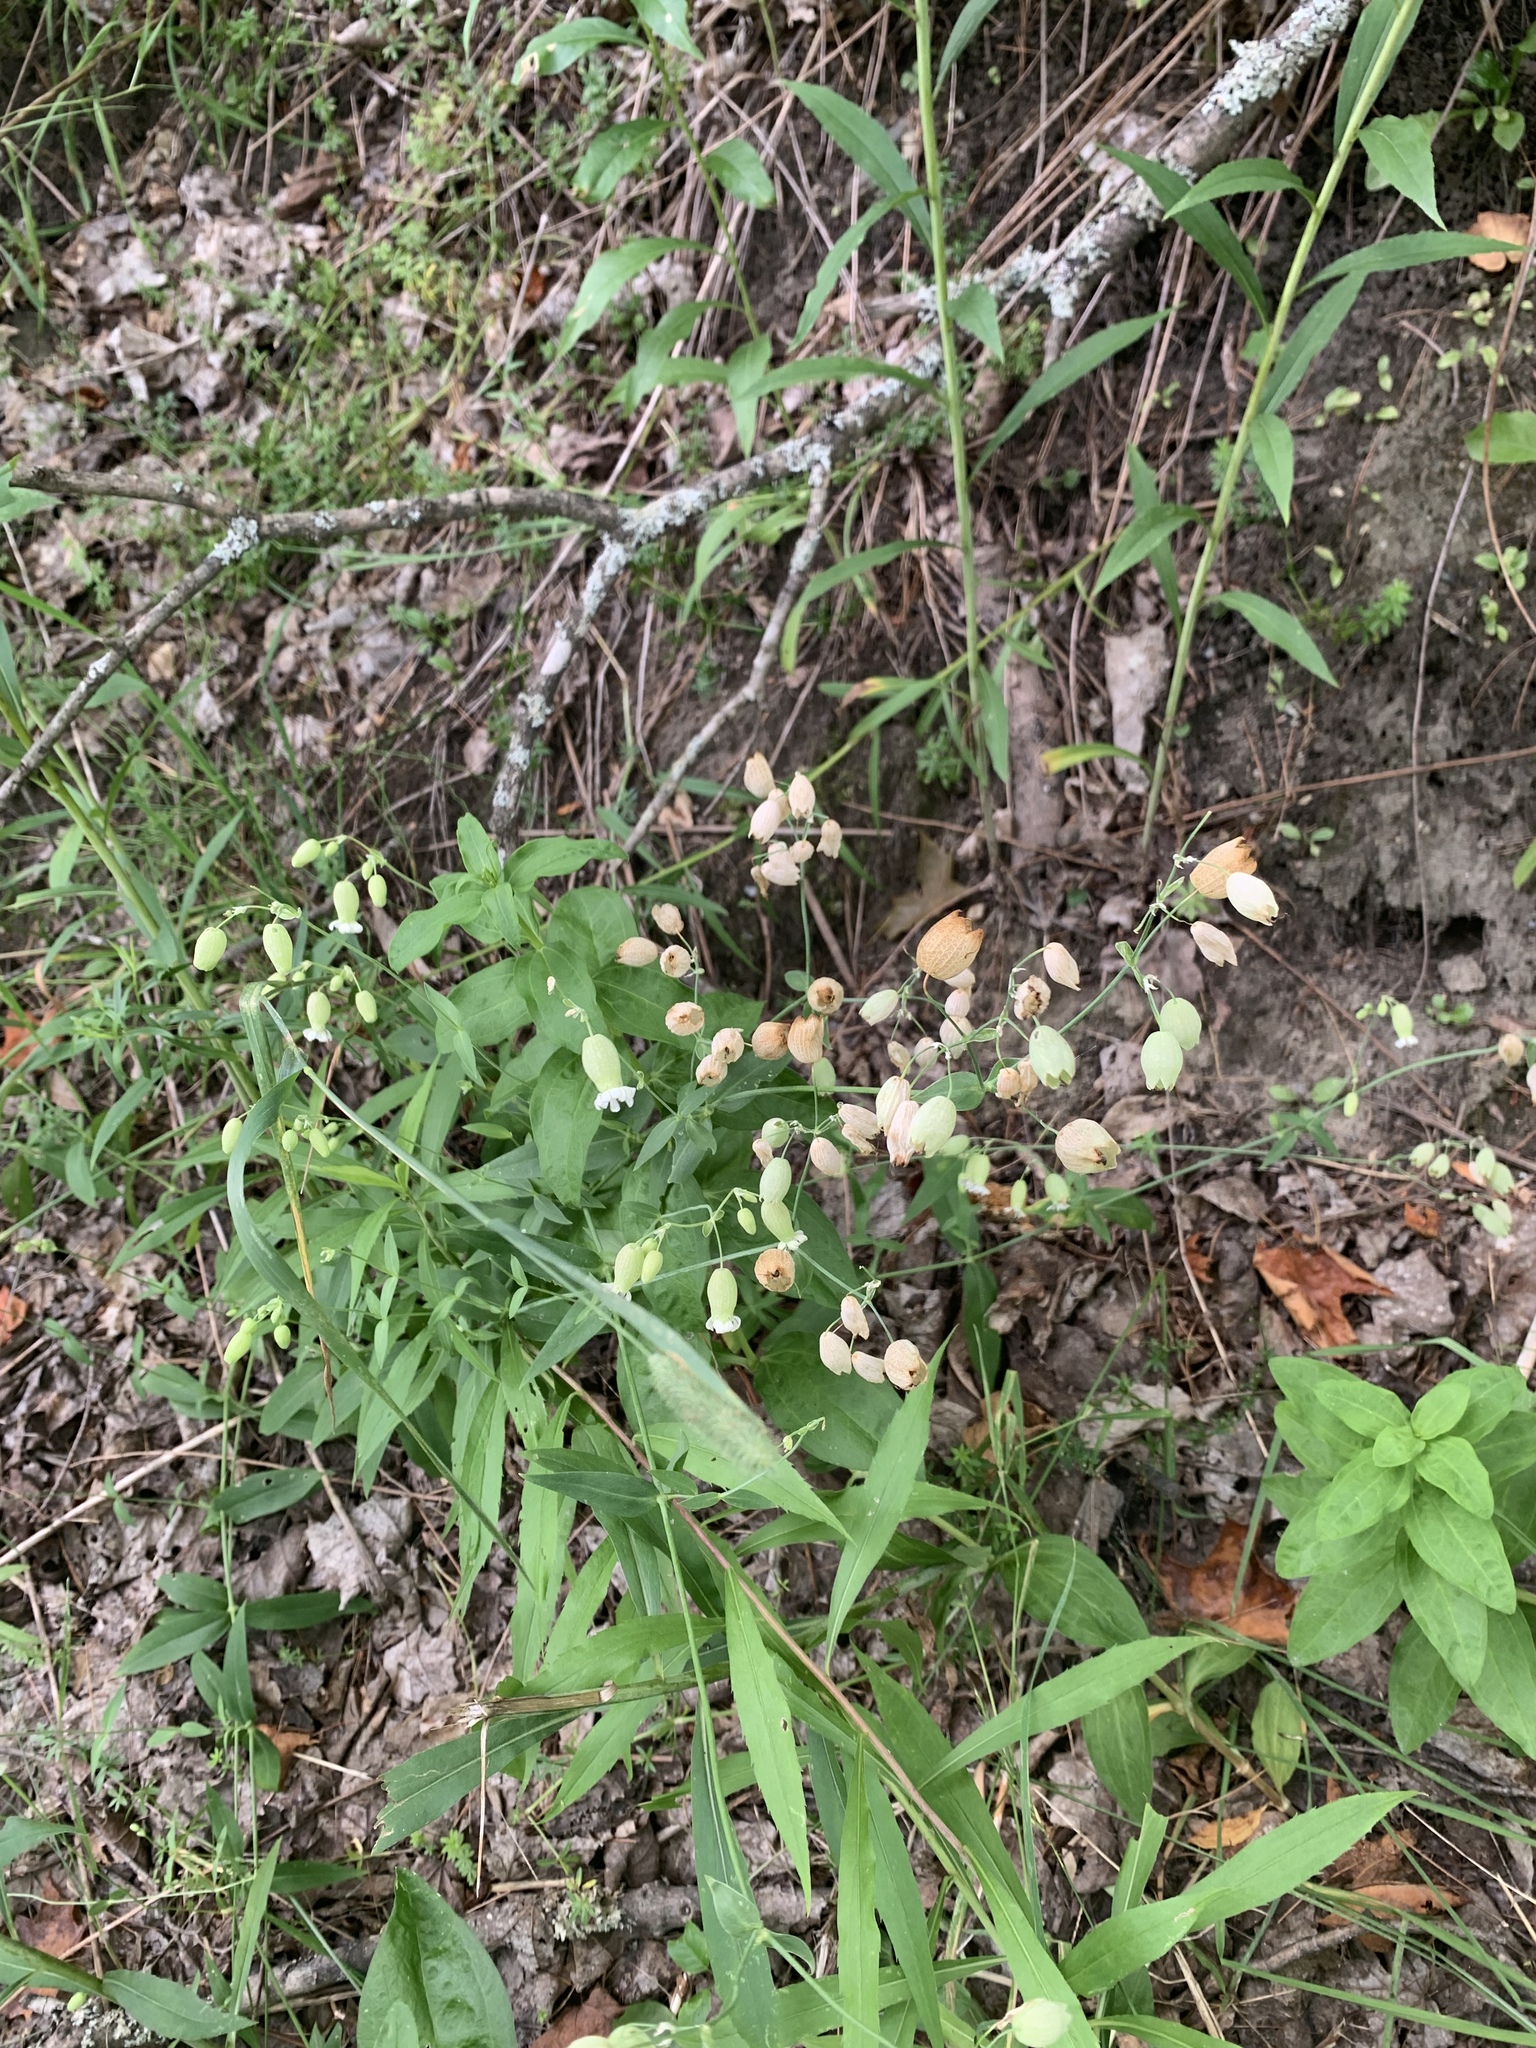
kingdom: Plantae
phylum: Tracheophyta
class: Magnoliopsida
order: Caryophyllales
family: Caryophyllaceae
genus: Silene
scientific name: Silene vulgaris
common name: Bladder campion
